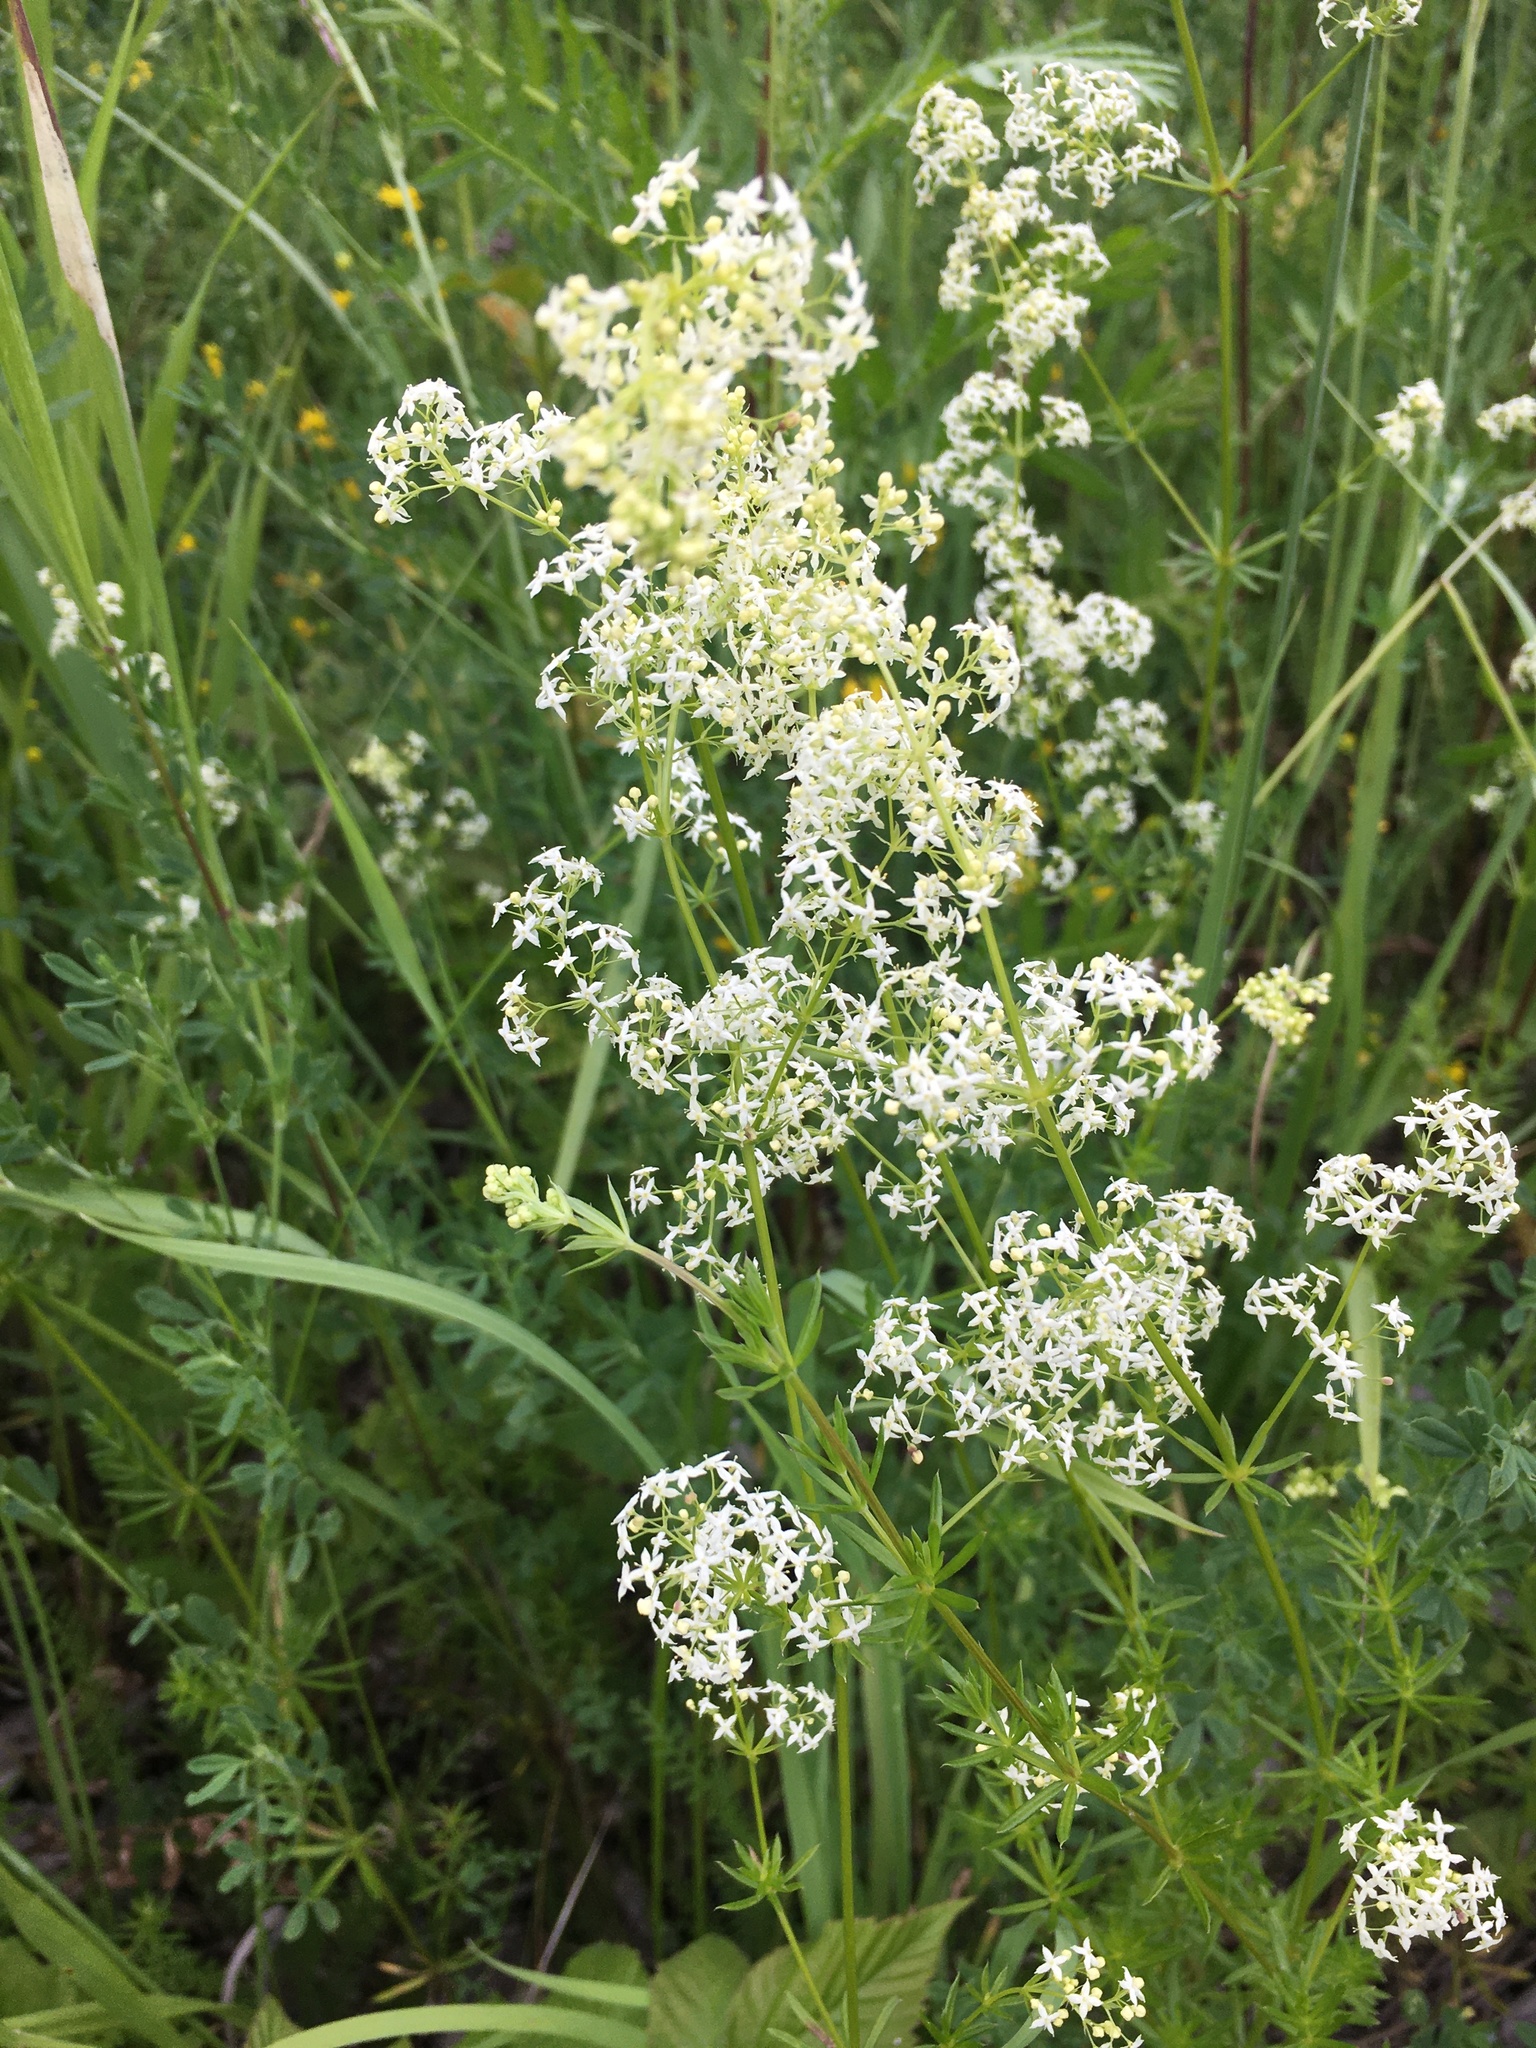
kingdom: Plantae
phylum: Tracheophyta
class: Magnoliopsida
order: Gentianales
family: Rubiaceae
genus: Galium
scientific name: Galium mollugo
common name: Hedge bedstraw
